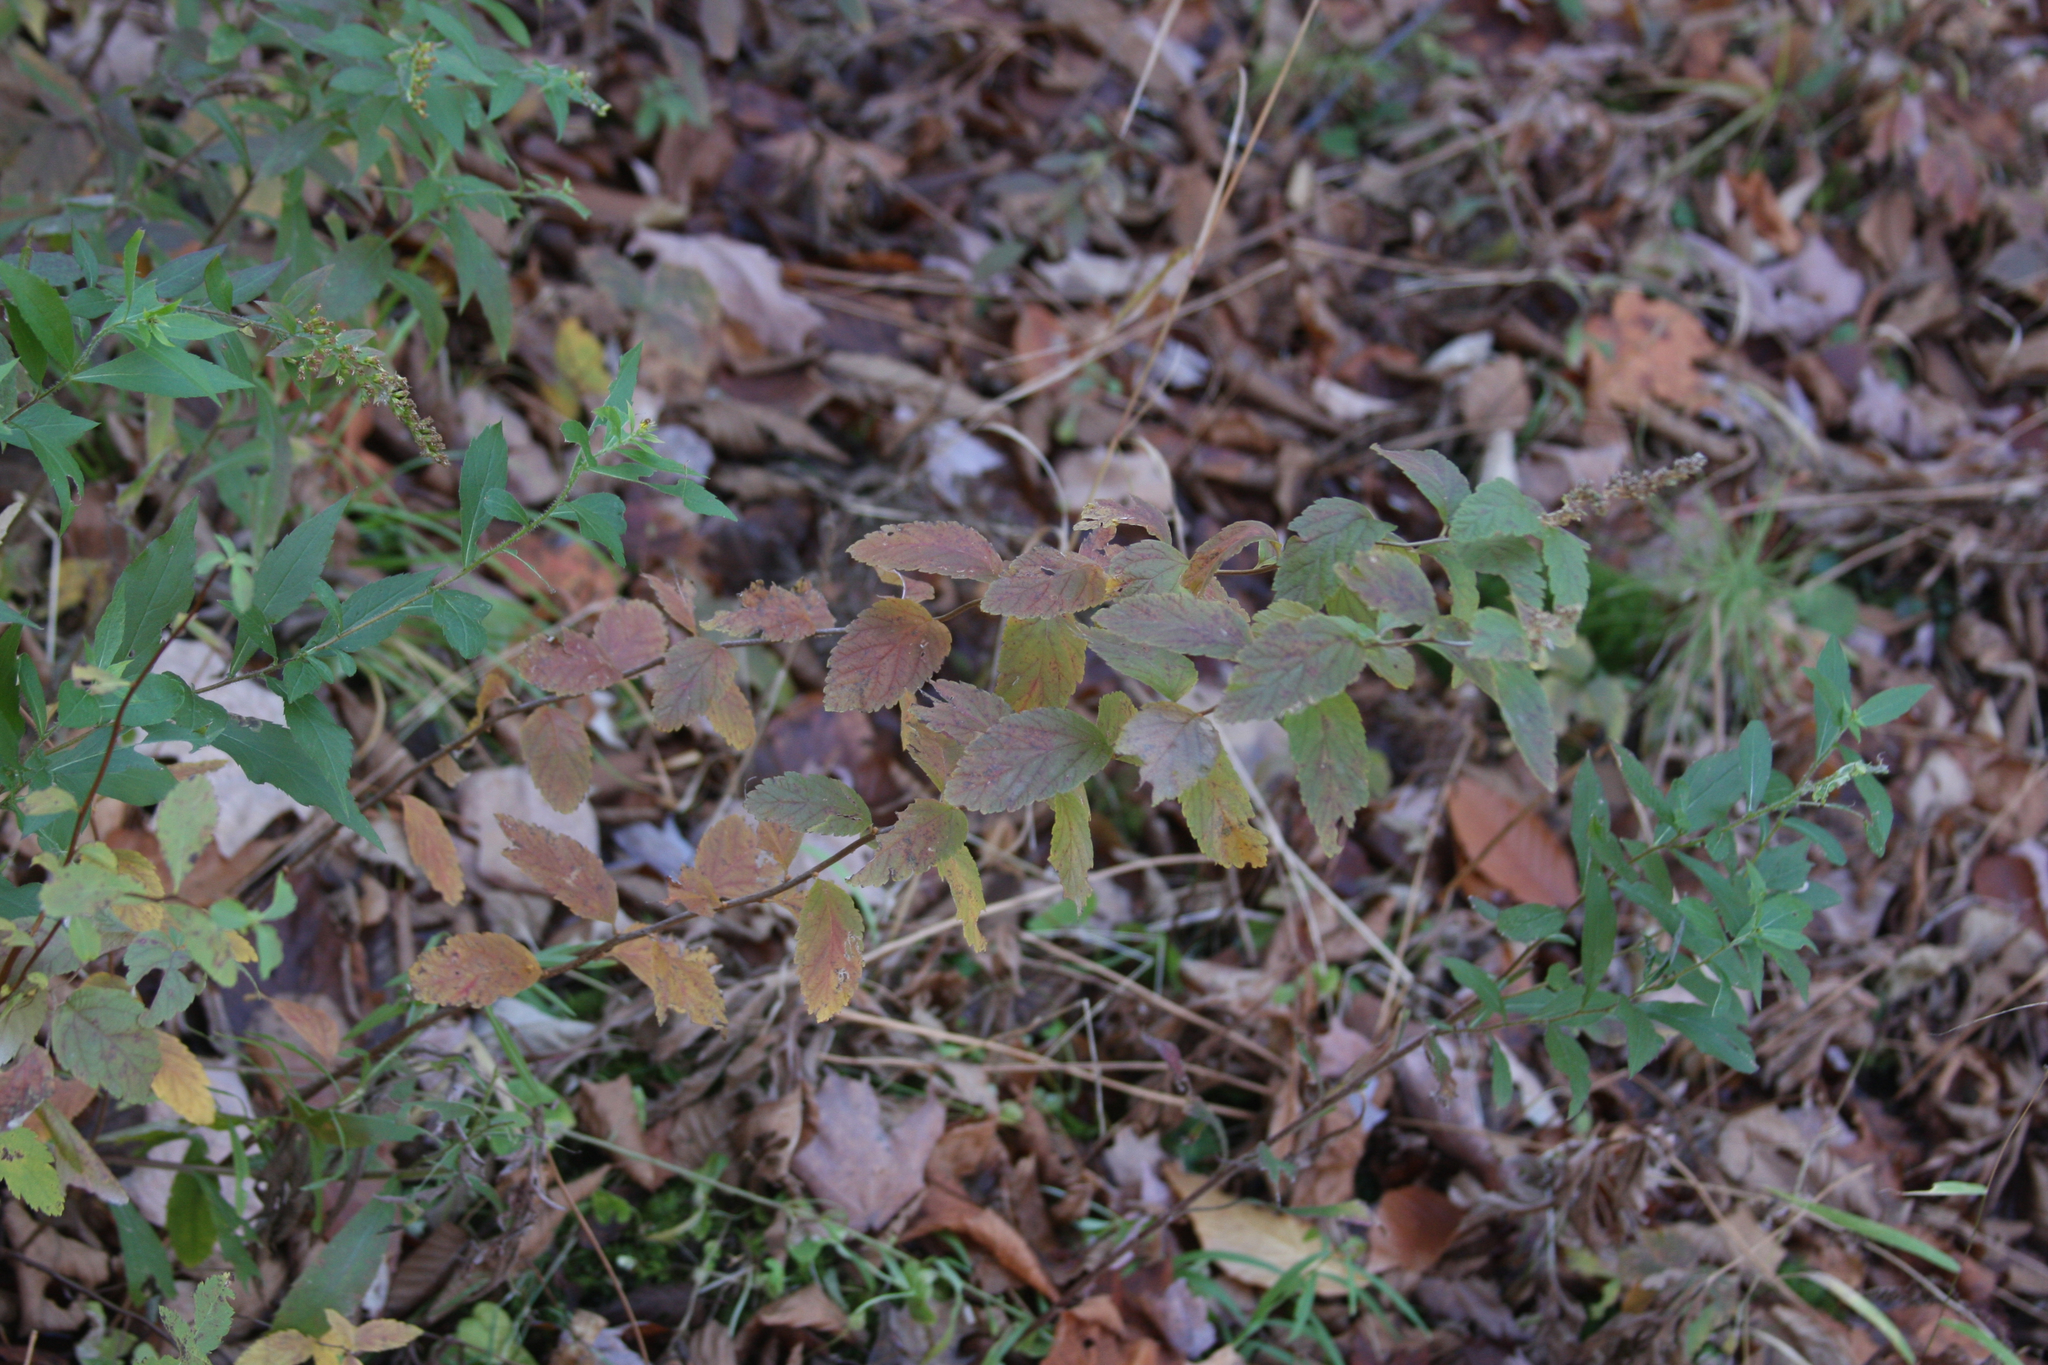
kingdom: Plantae
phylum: Tracheophyta
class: Magnoliopsida
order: Rosales
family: Rosaceae
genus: Spiraea
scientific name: Spiraea tomentosa
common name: Hardhack
